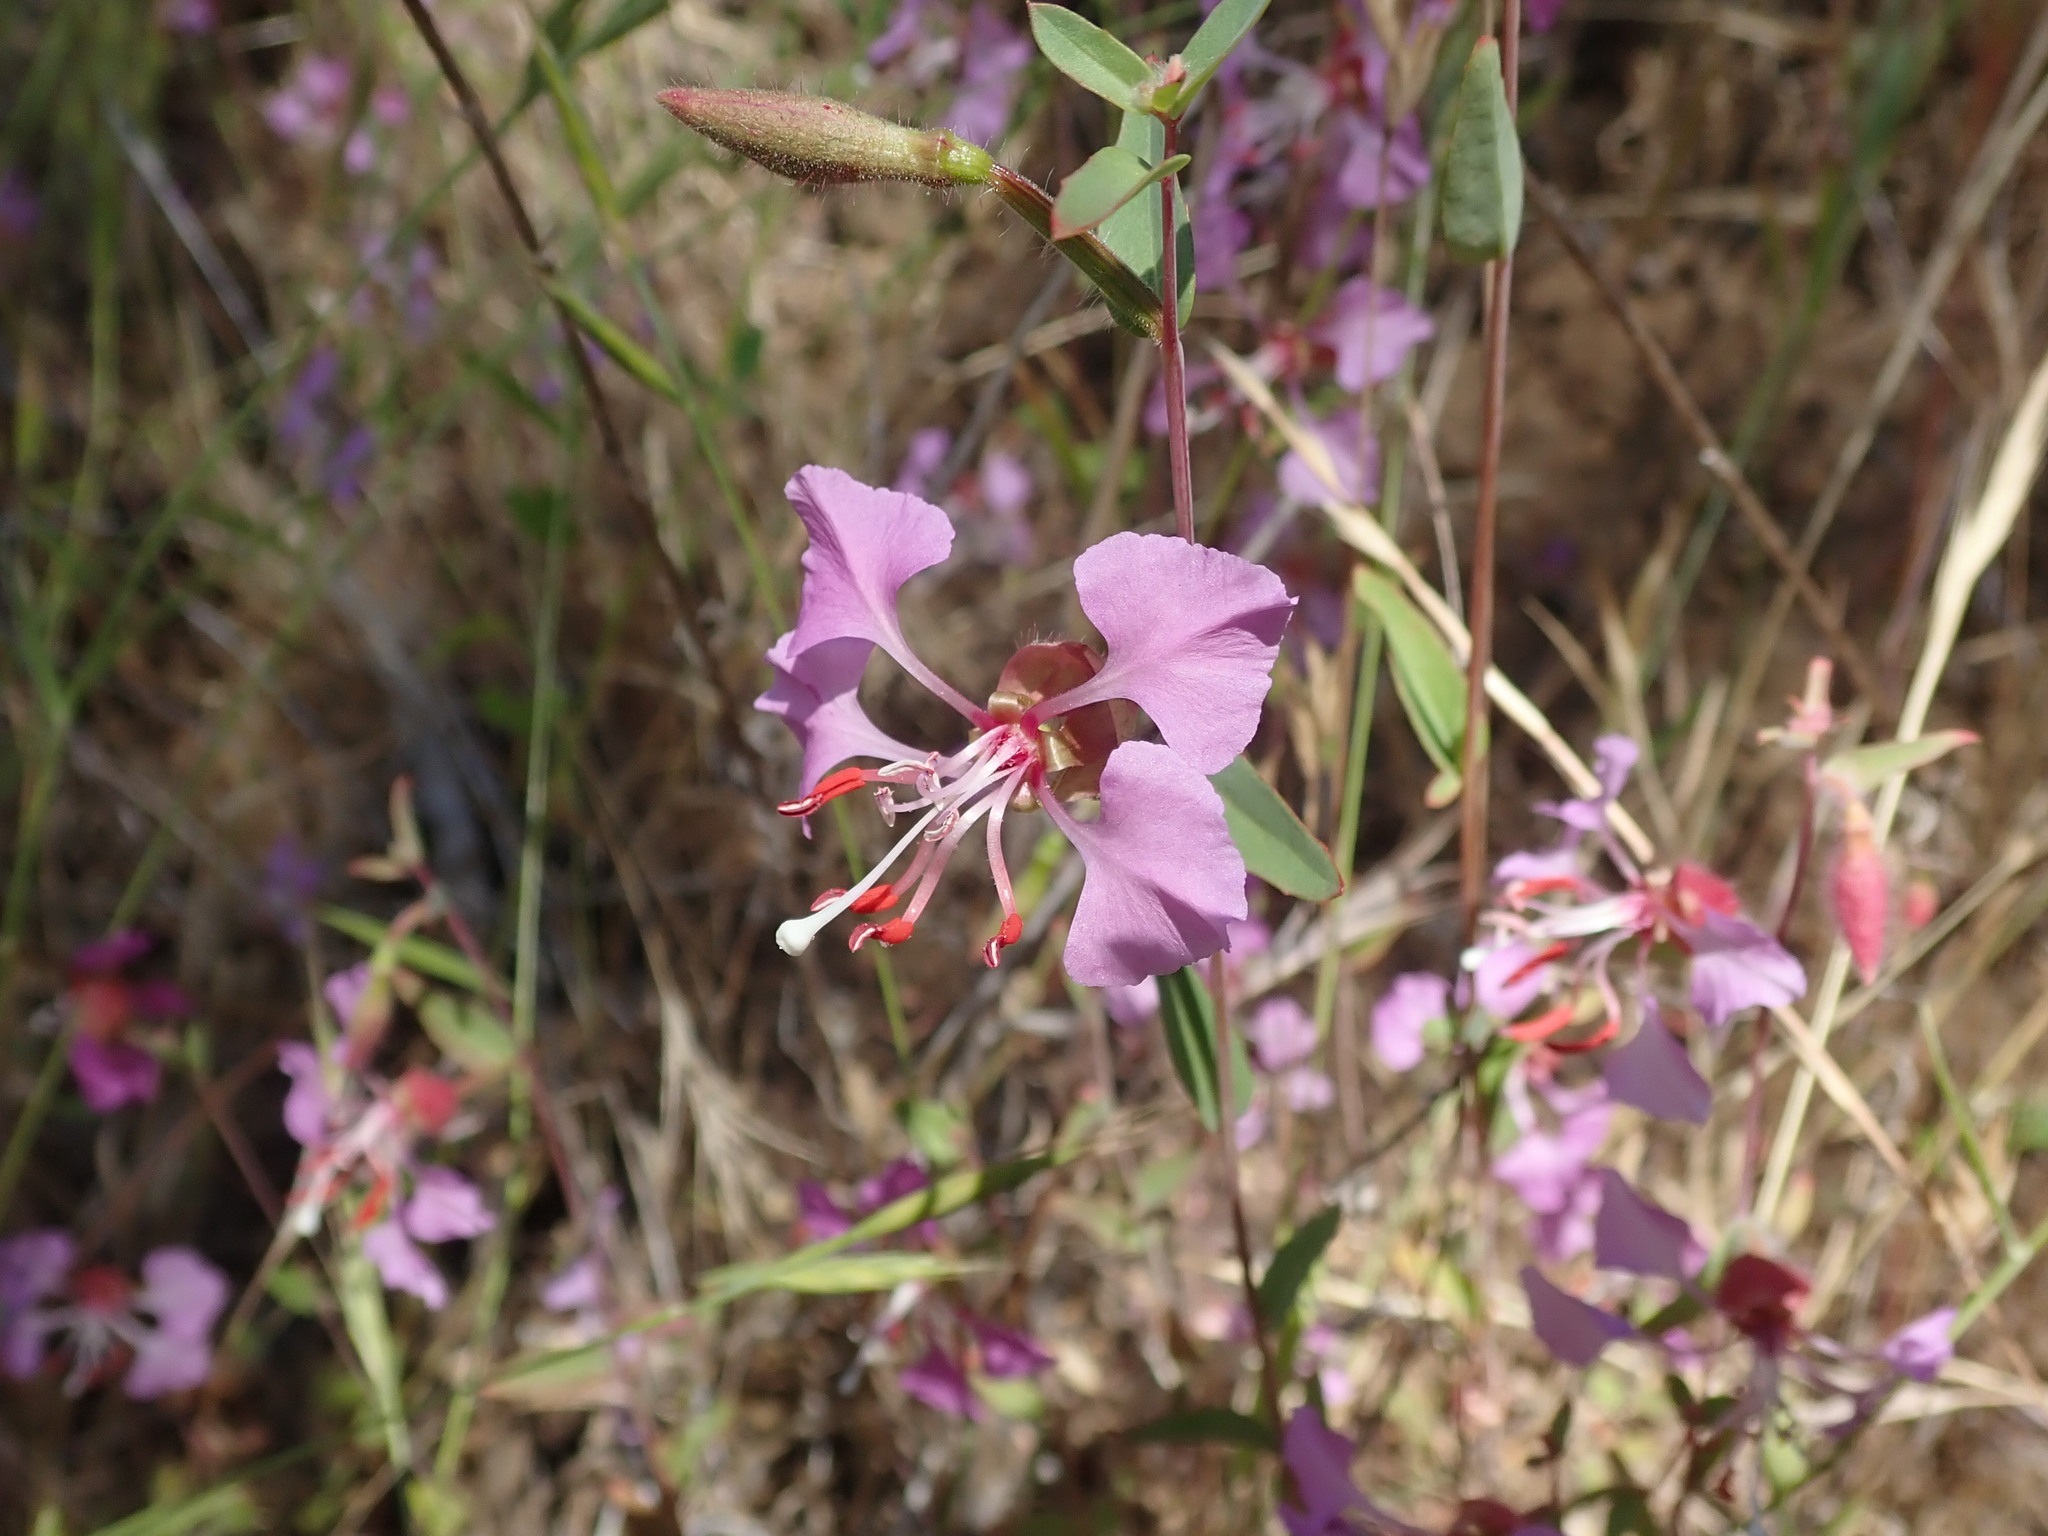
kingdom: Plantae
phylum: Tracheophyta
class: Magnoliopsida
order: Myrtales
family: Onagraceae
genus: Clarkia
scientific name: Clarkia unguiculata
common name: Clarkia
